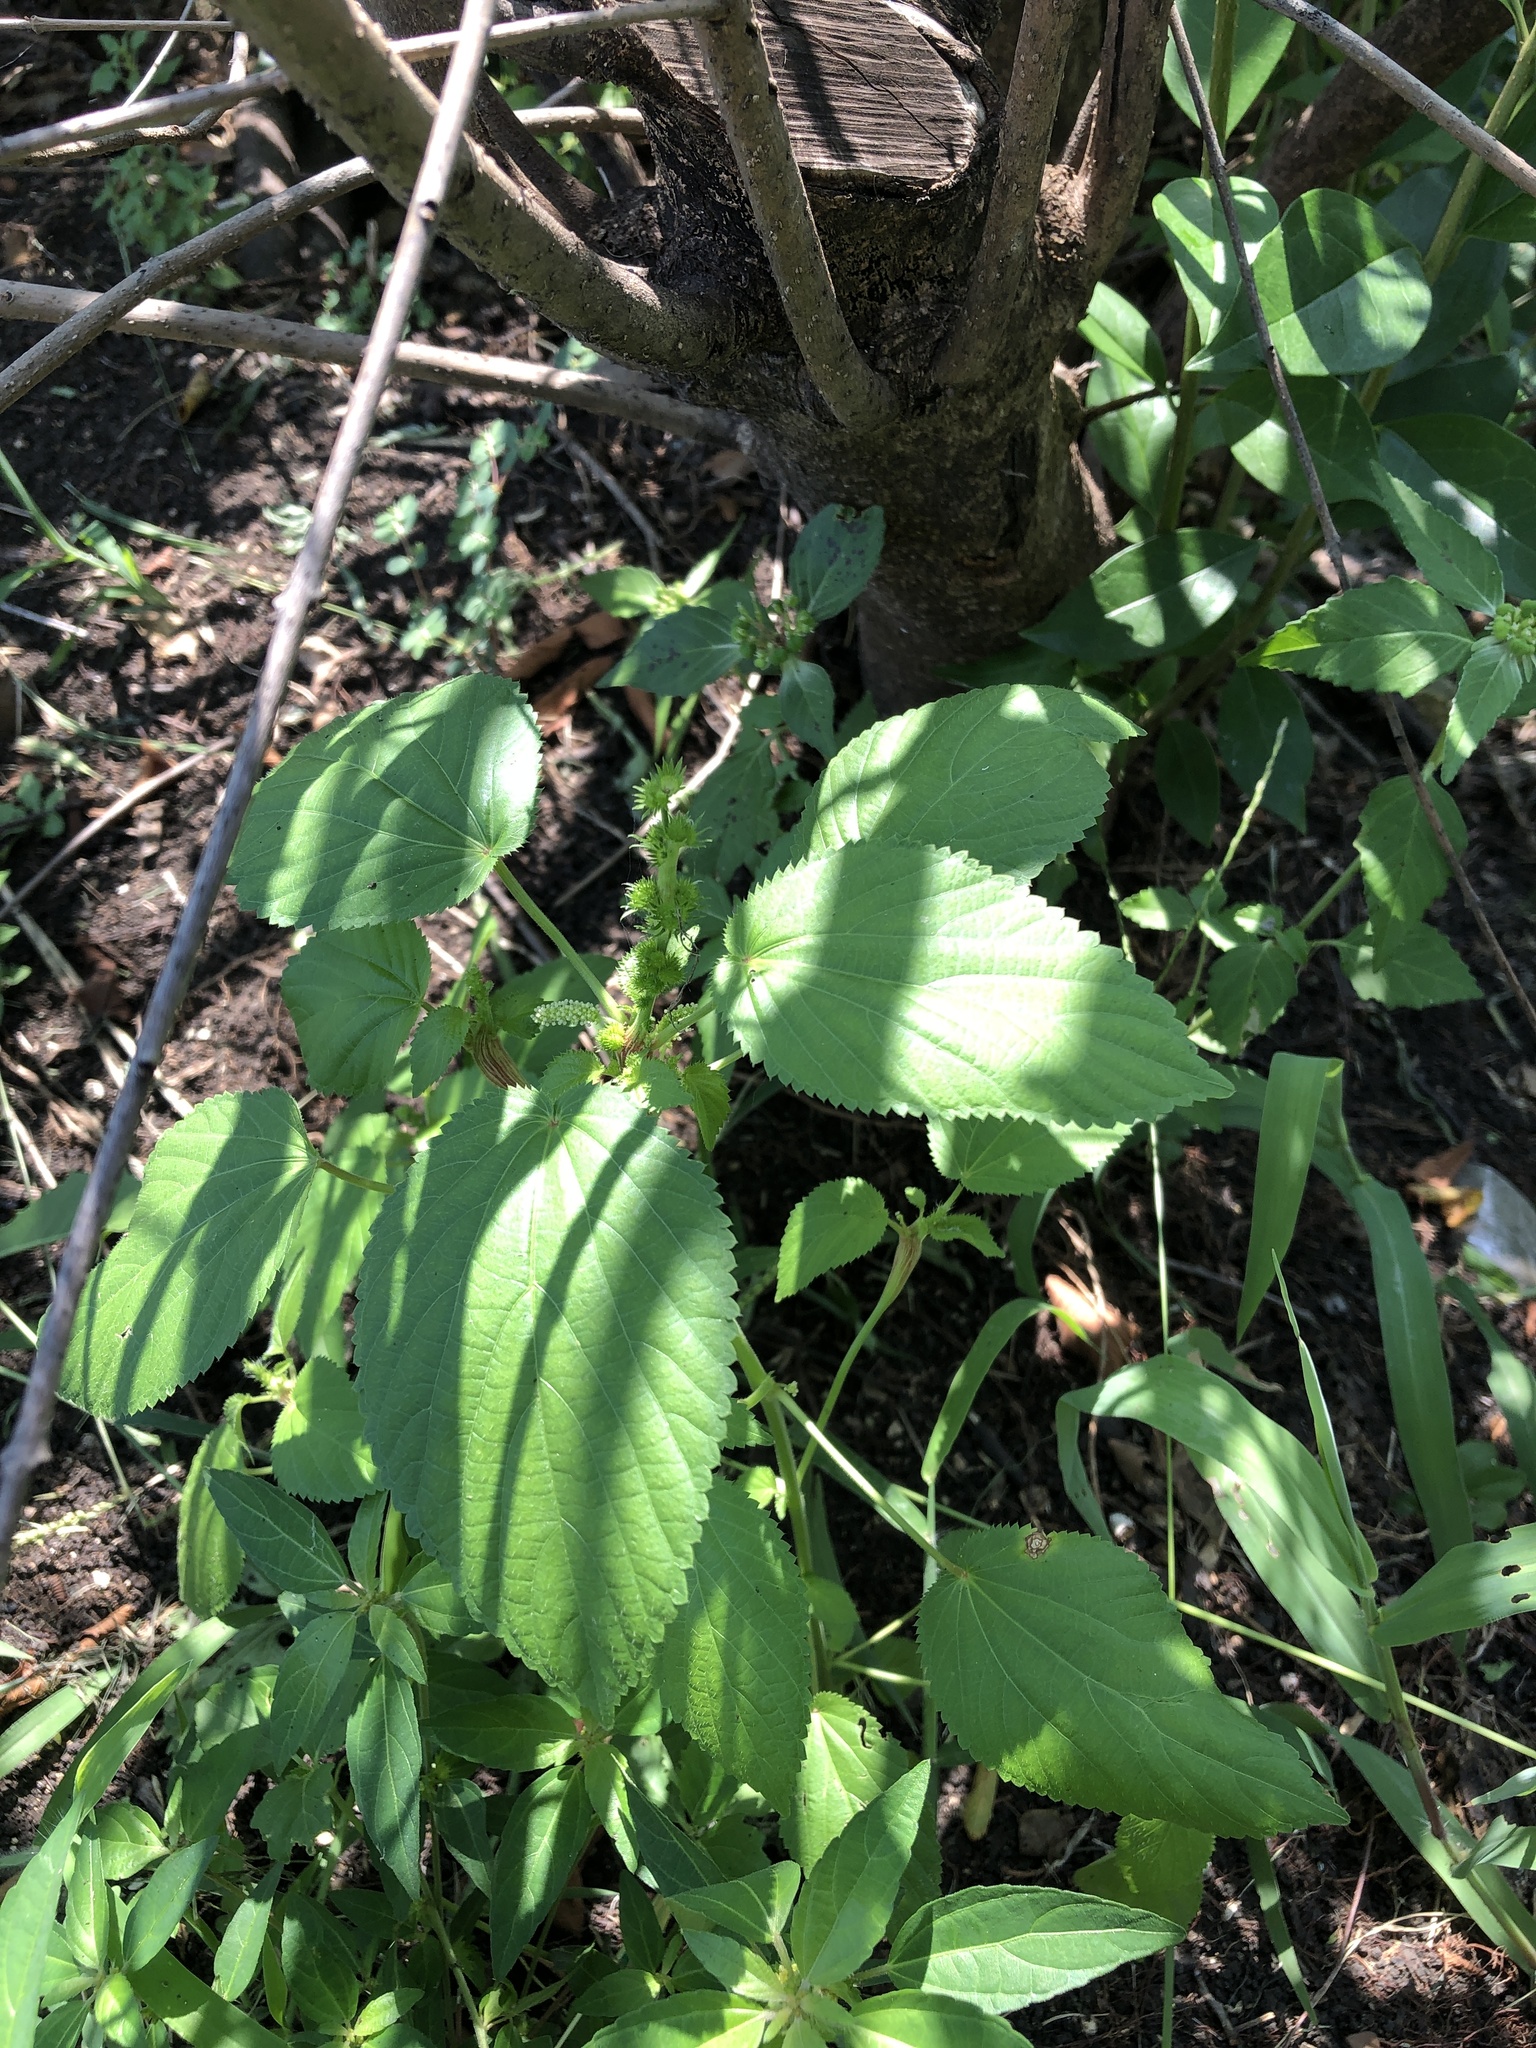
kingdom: Plantae
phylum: Tracheophyta
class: Magnoliopsida
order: Malpighiales
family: Euphorbiaceae
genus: Acalypha
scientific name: Acalypha ostryifolia
